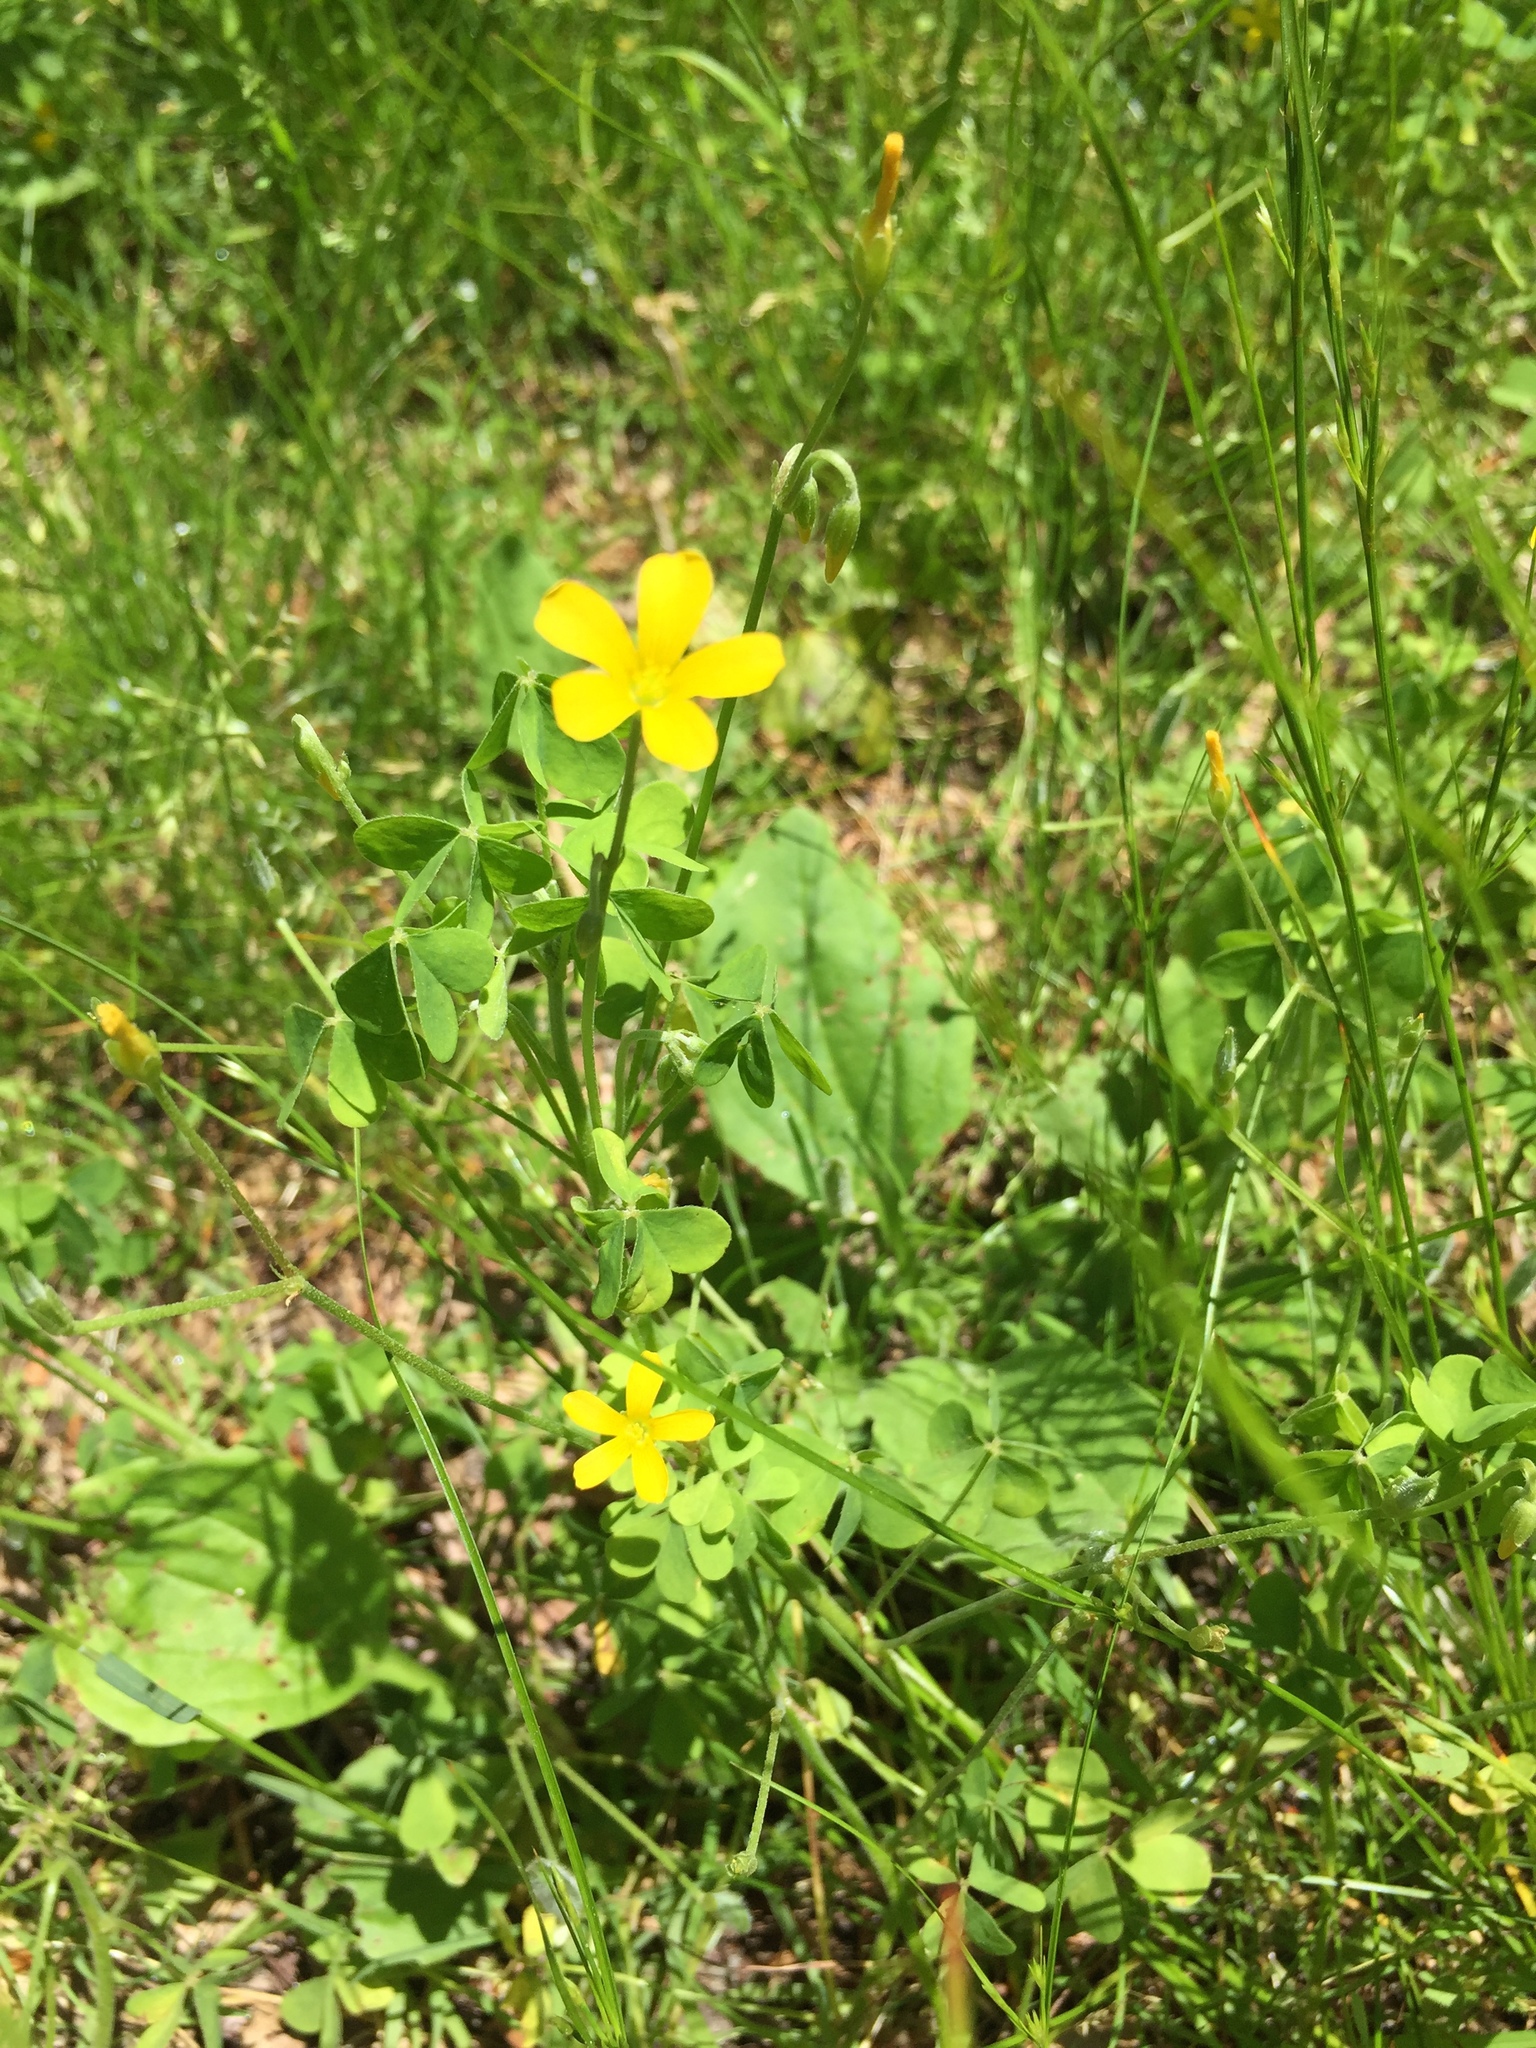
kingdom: Plantae
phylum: Tracheophyta
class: Magnoliopsida
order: Oxalidales
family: Oxalidaceae
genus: Oxalis
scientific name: Oxalis stricta
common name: Upright yellow-sorrel
